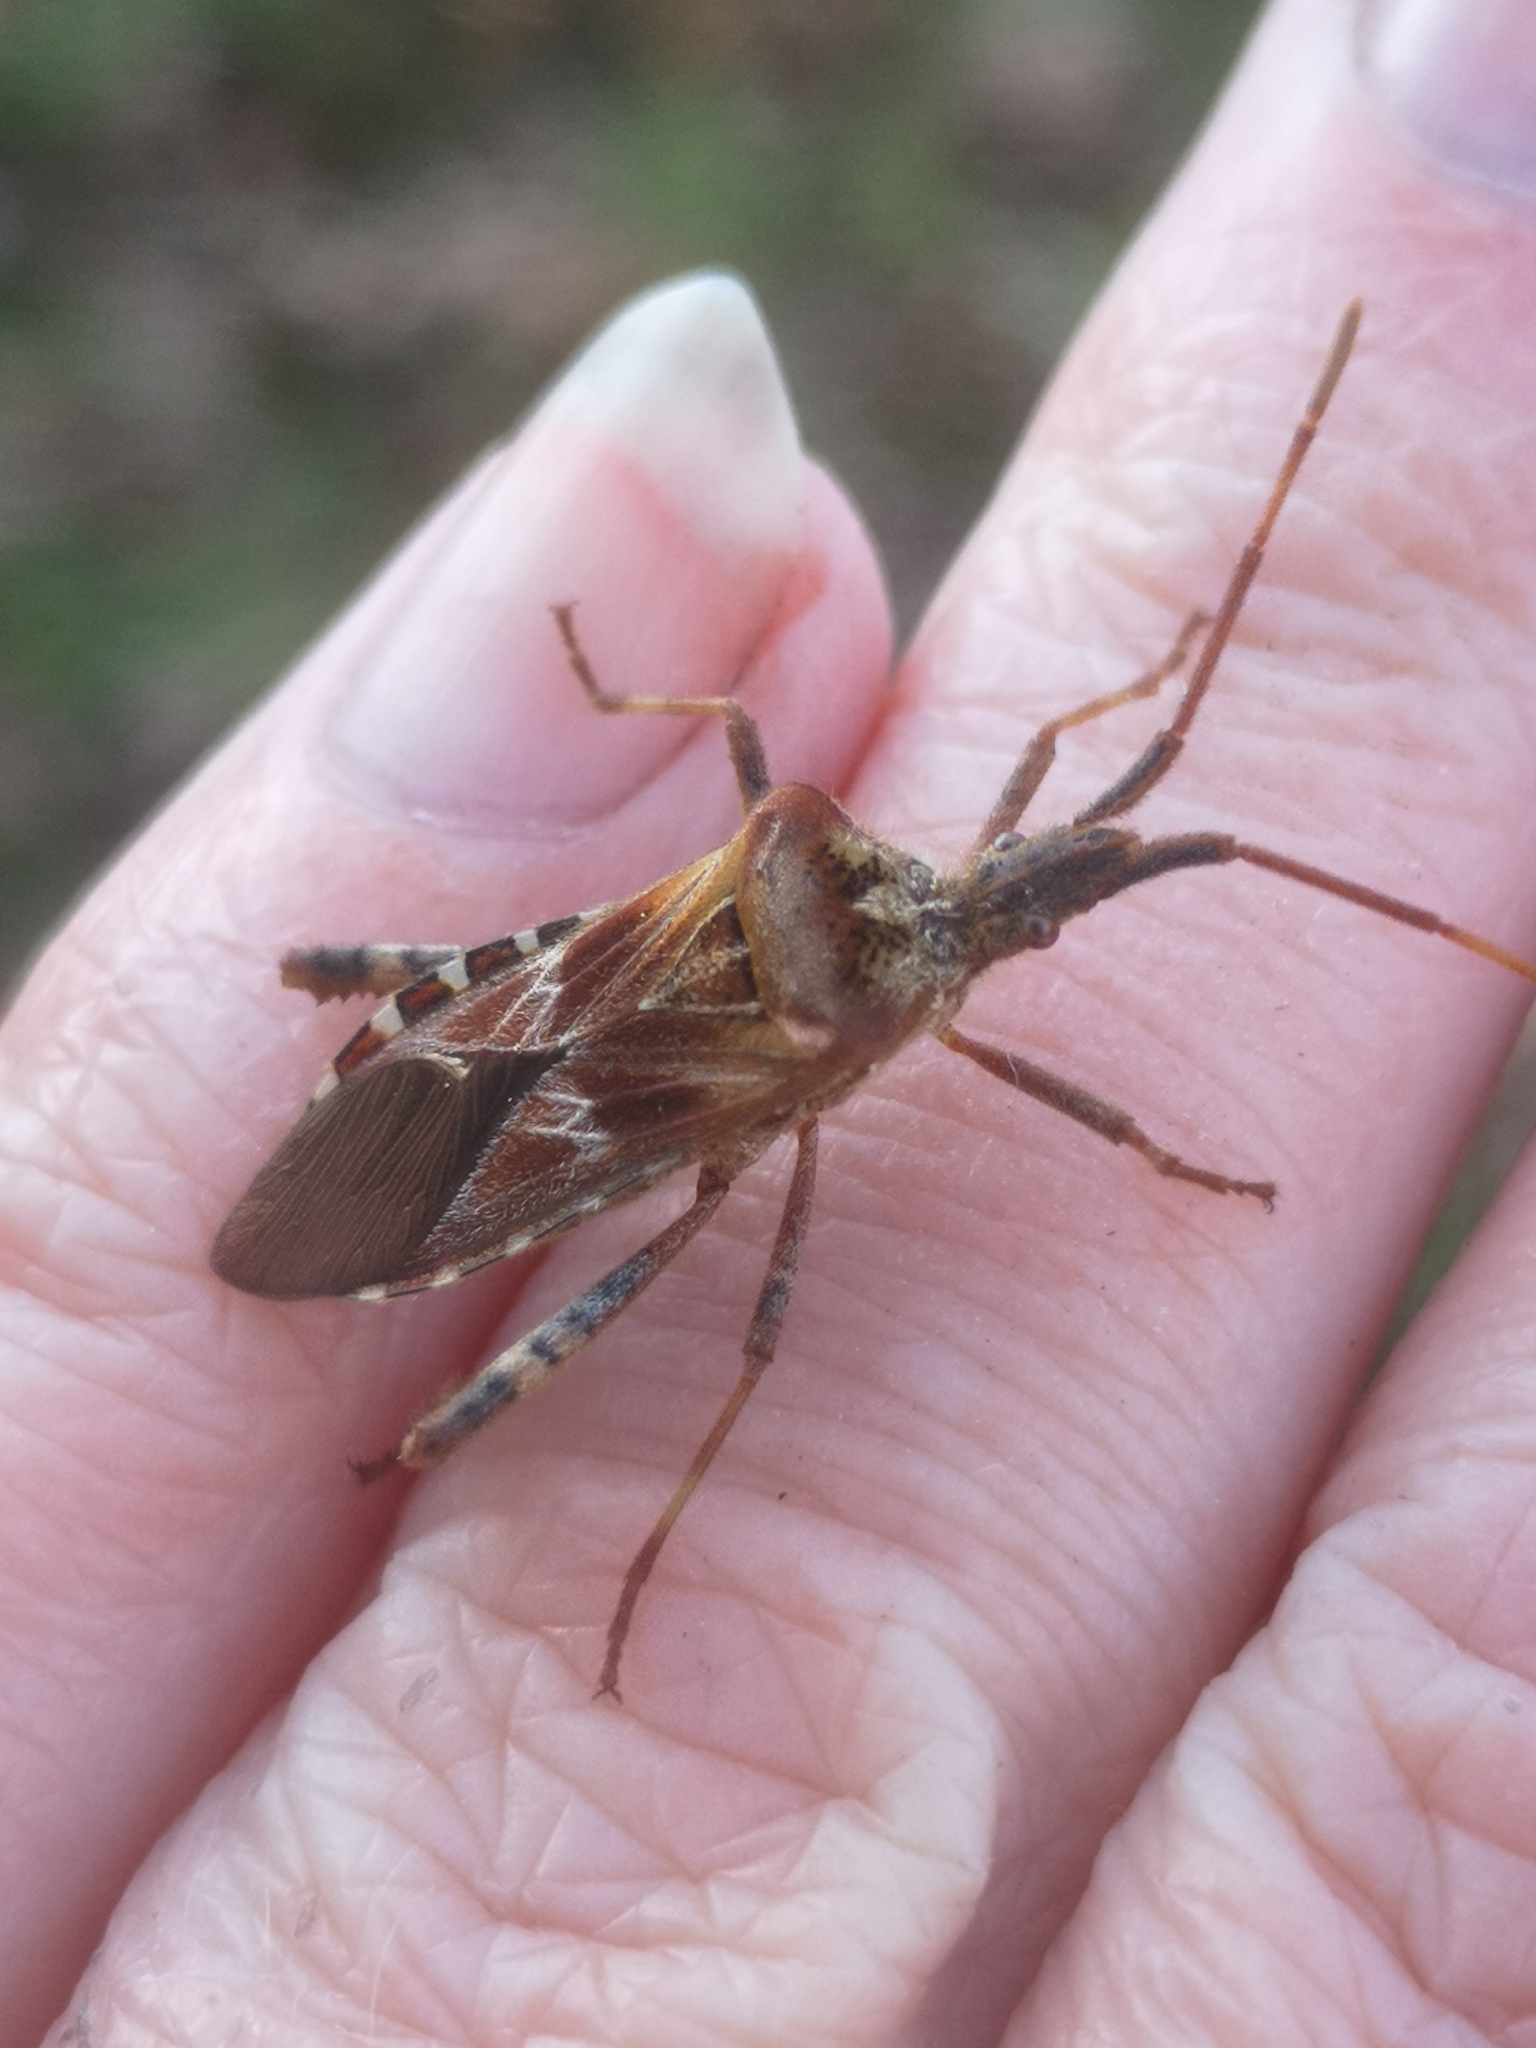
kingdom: Animalia
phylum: Arthropoda
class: Insecta
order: Hemiptera
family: Coreidae
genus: Leptoglossus
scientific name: Leptoglossus occidentalis
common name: Western conifer-seed bug
